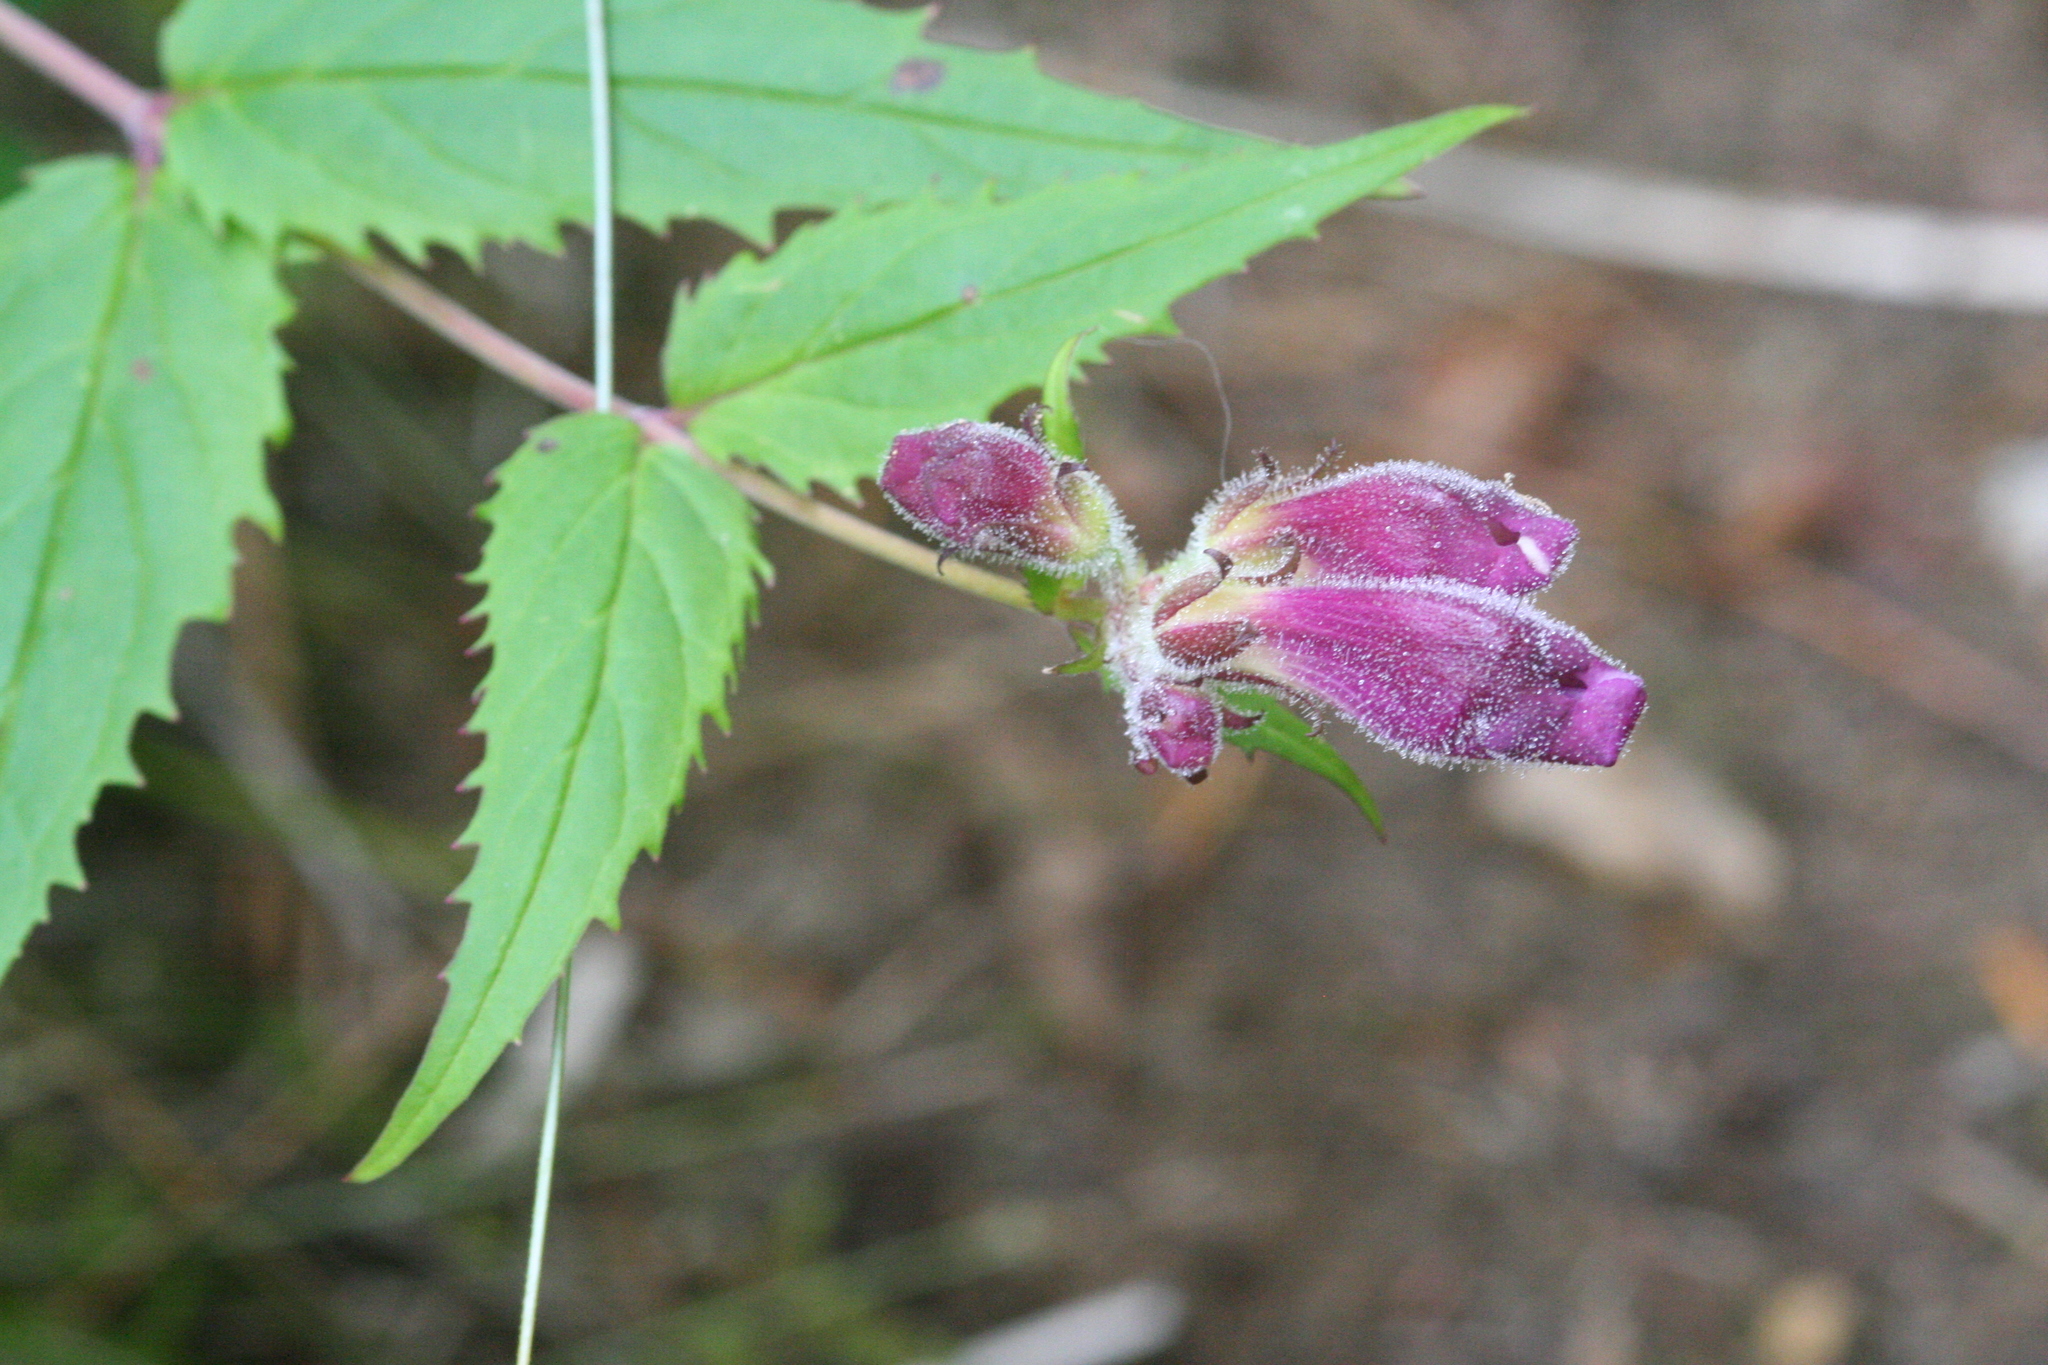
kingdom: Plantae
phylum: Tracheophyta
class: Magnoliopsida
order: Lamiales
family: Plantaginaceae
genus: Nothochelone
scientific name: Nothochelone nemorosa
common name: Woodland beardtongue
